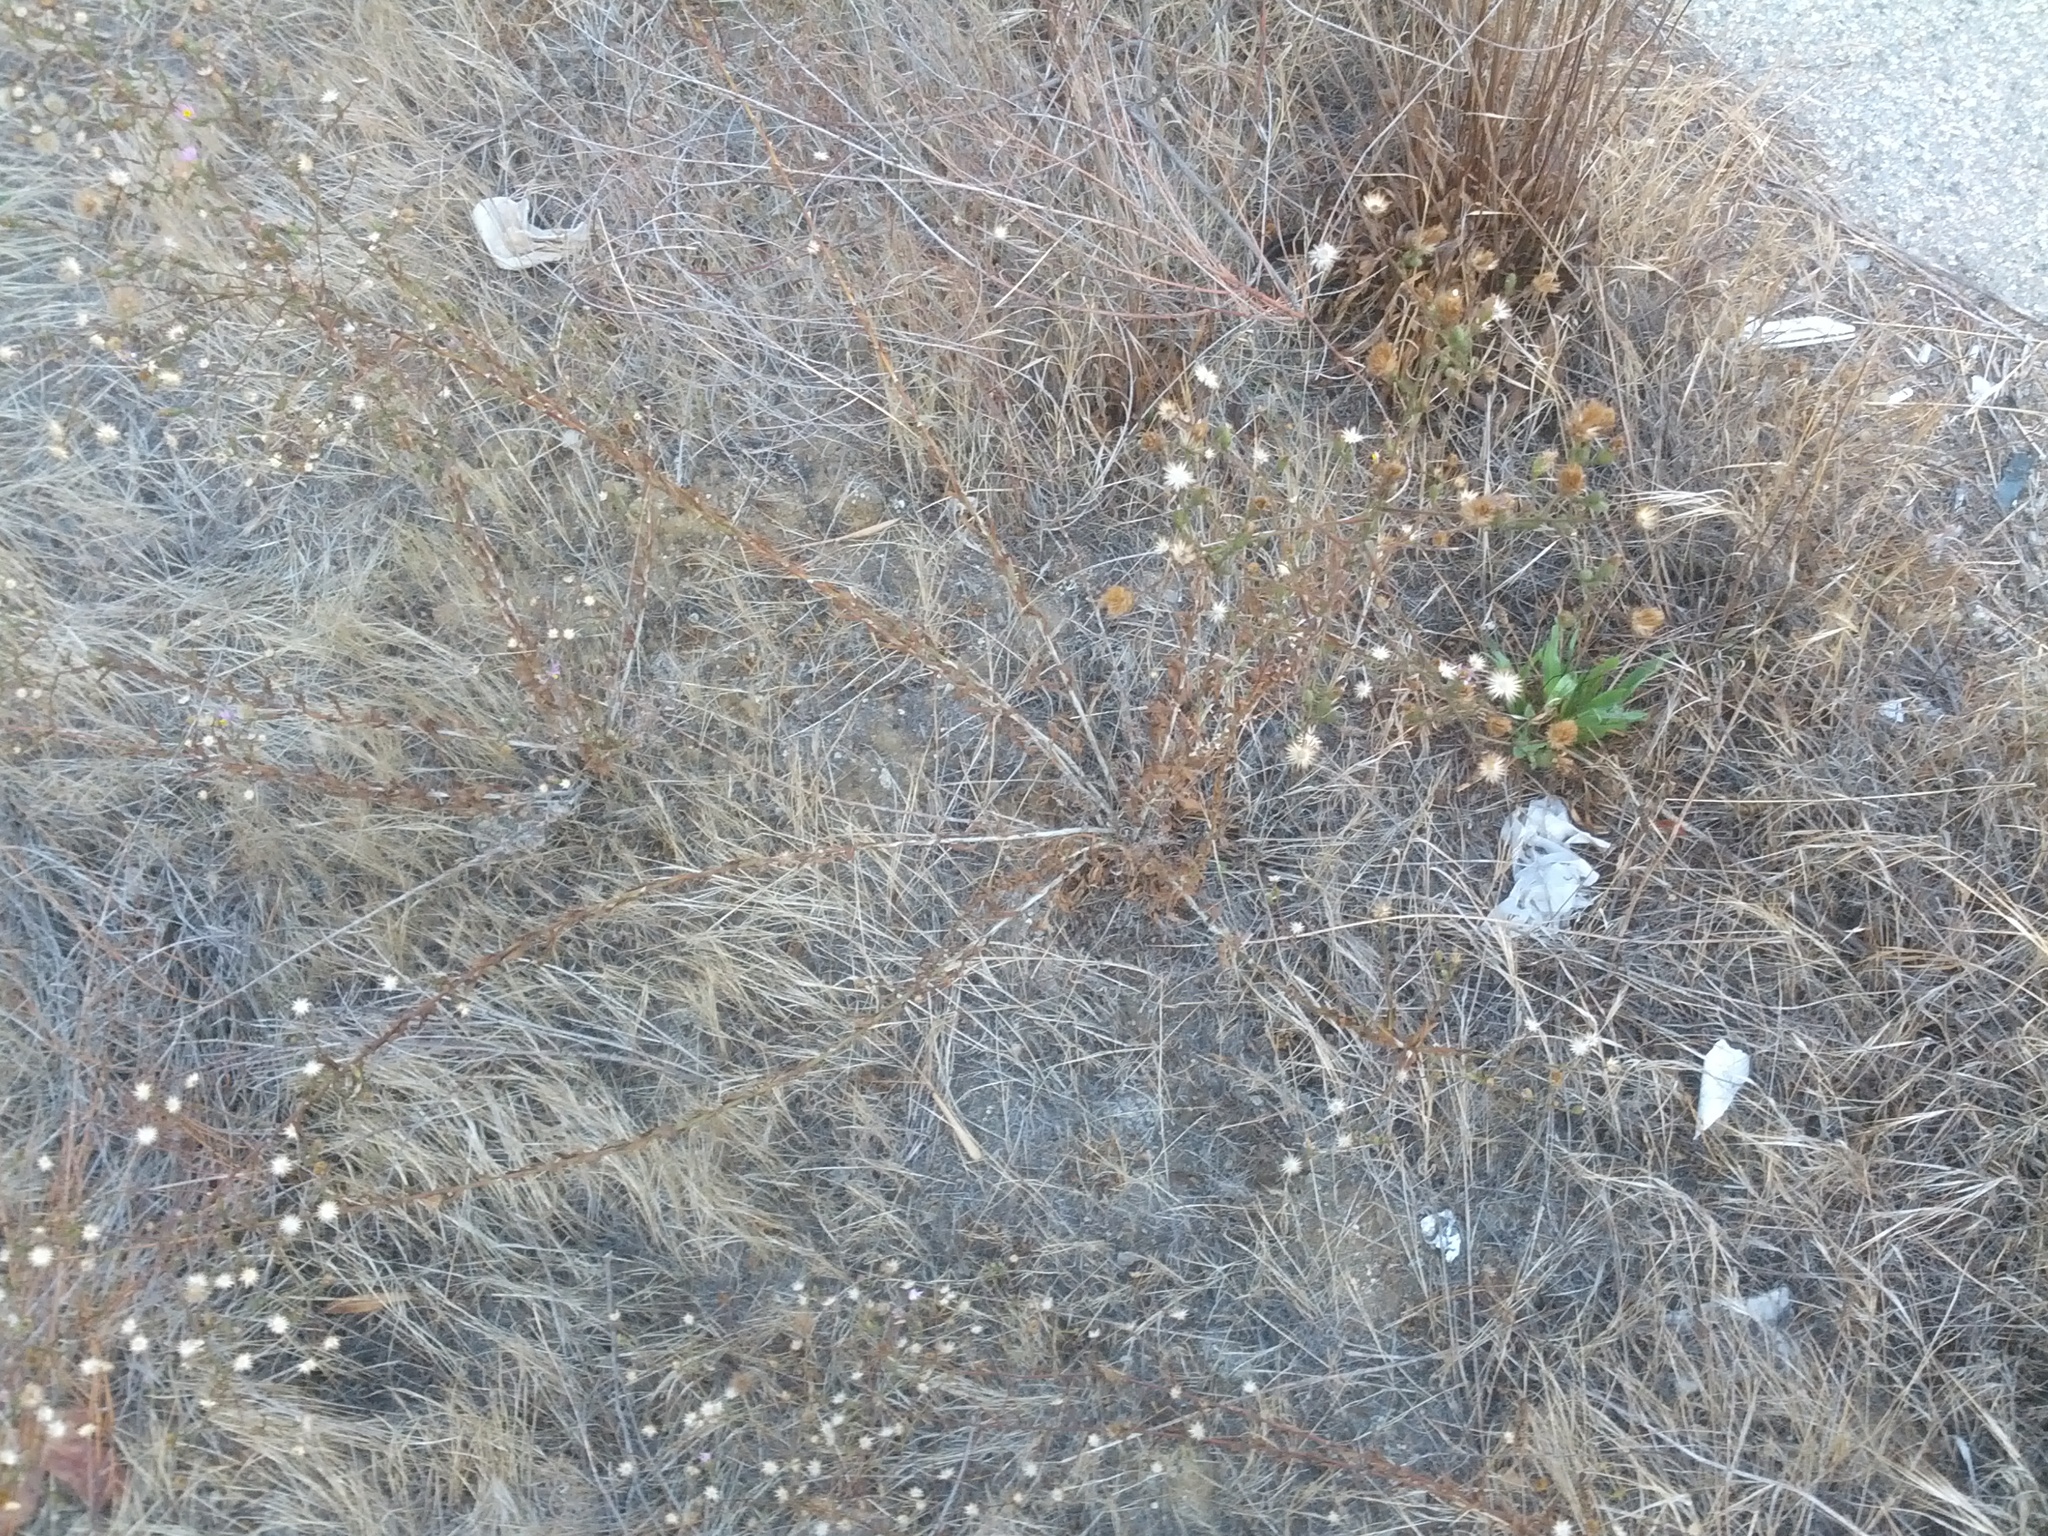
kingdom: Plantae
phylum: Tracheophyta
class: Magnoliopsida
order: Asterales
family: Asteraceae
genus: Corethrogyne
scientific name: Corethrogyne filaginifolia
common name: Sand-aster
